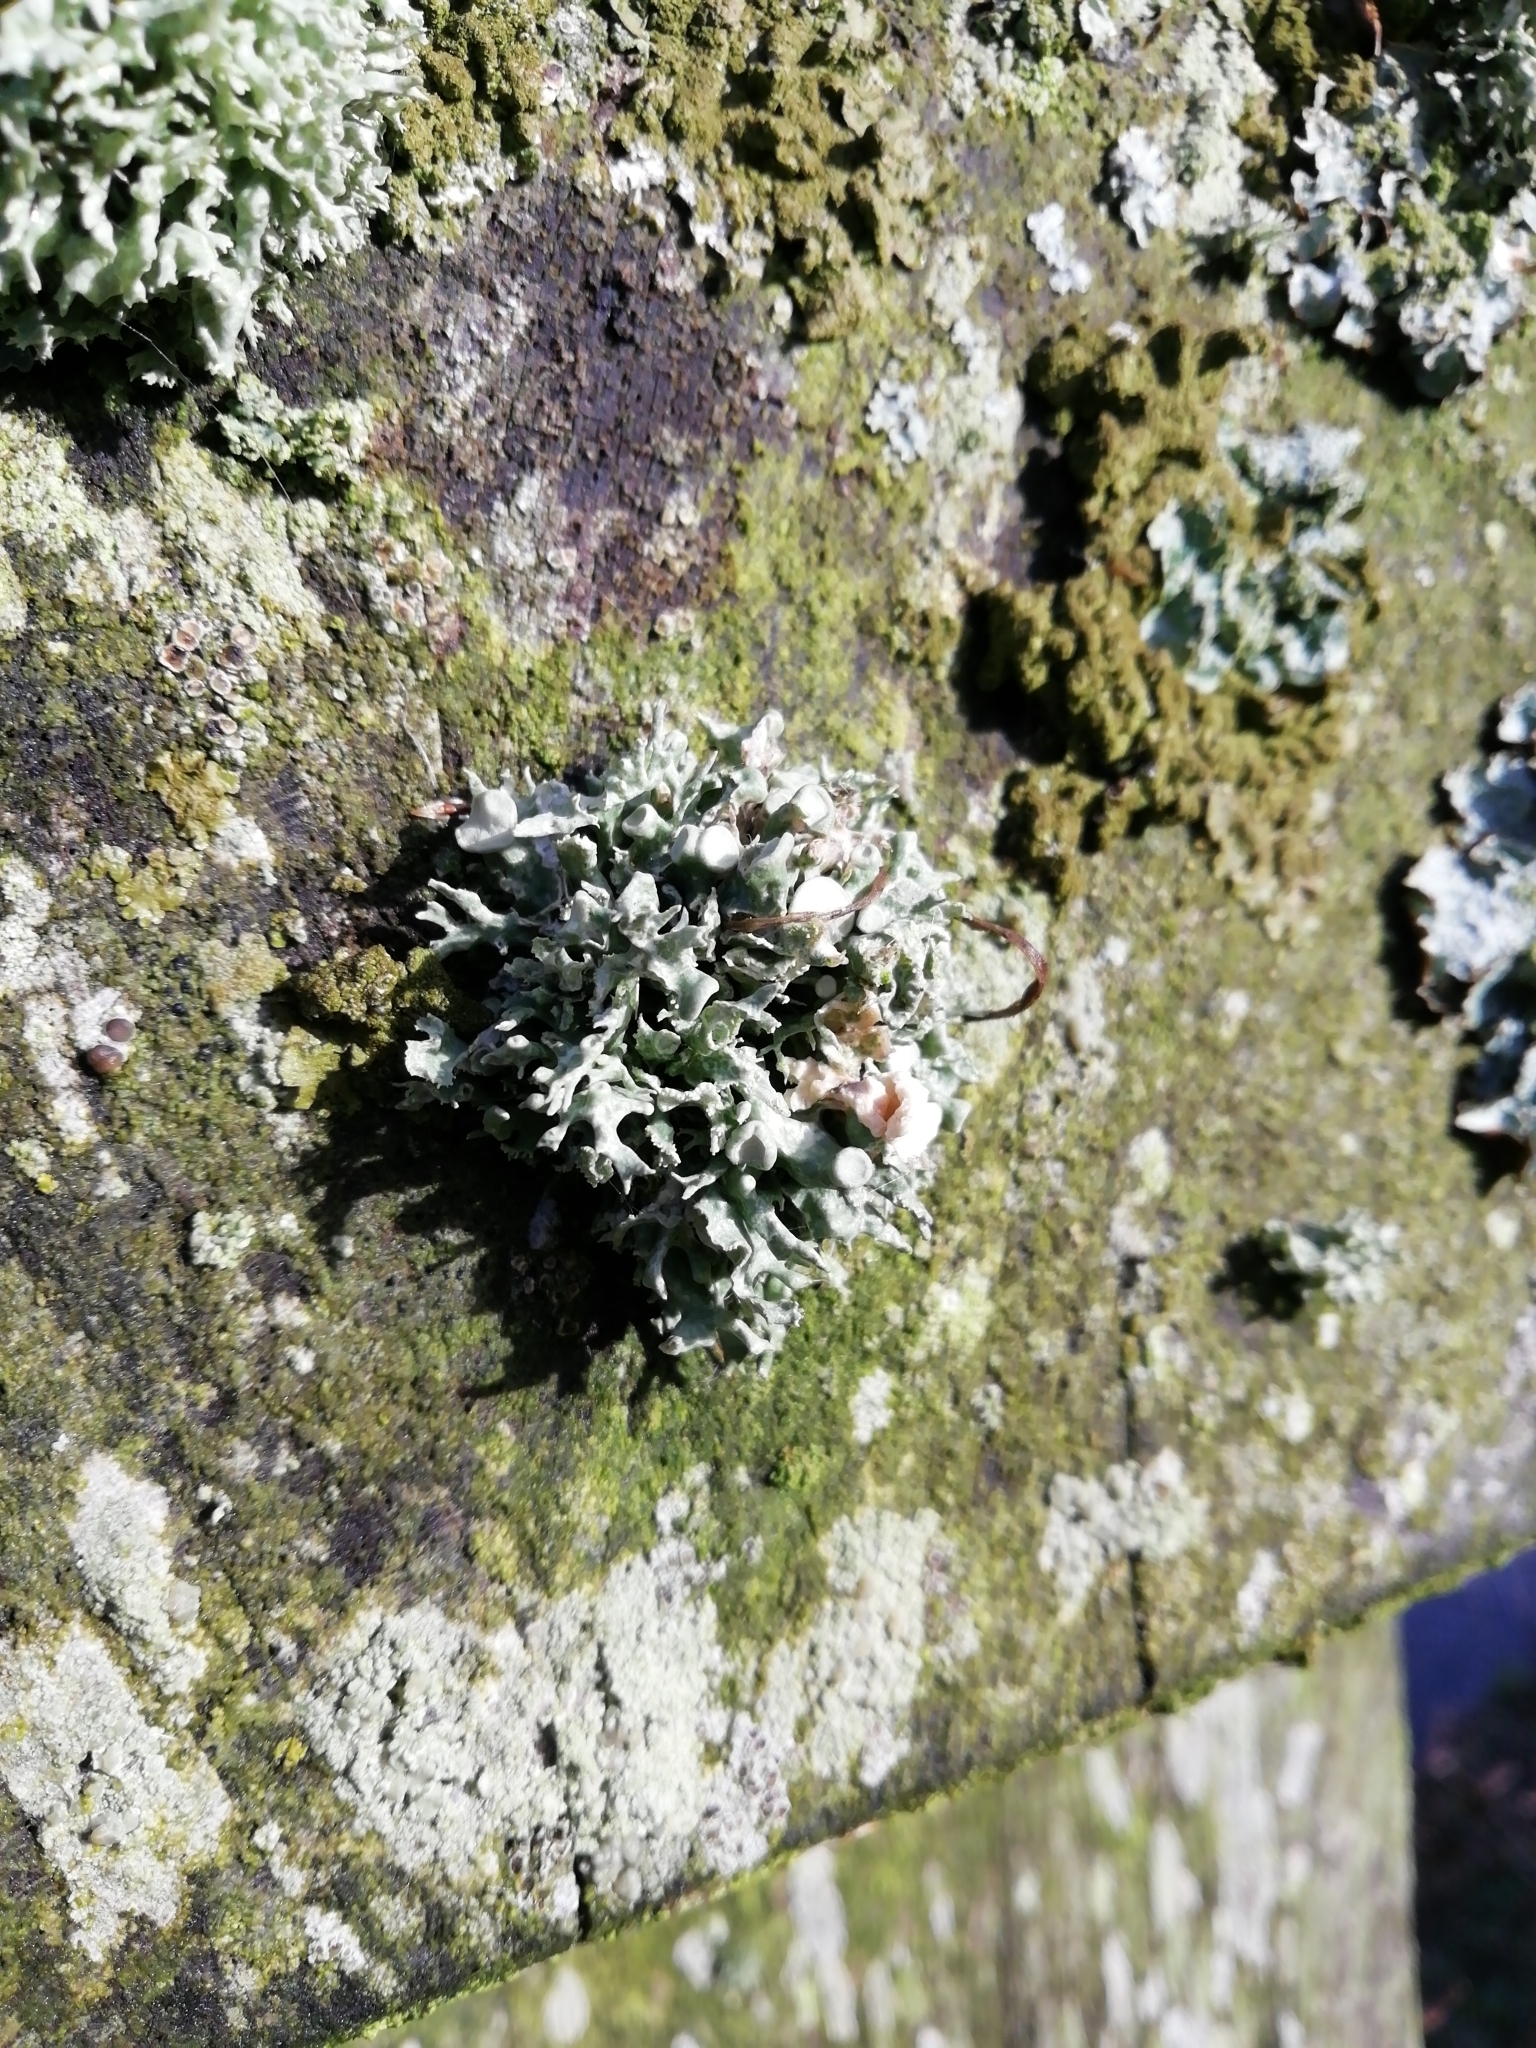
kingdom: Fungi
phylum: Ascomycota
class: Lecanoromycetes
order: Lecanorales
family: Ramalinaceae
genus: Ramalina
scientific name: Ramalina fastigiata
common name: Dotted ribbon lichen
